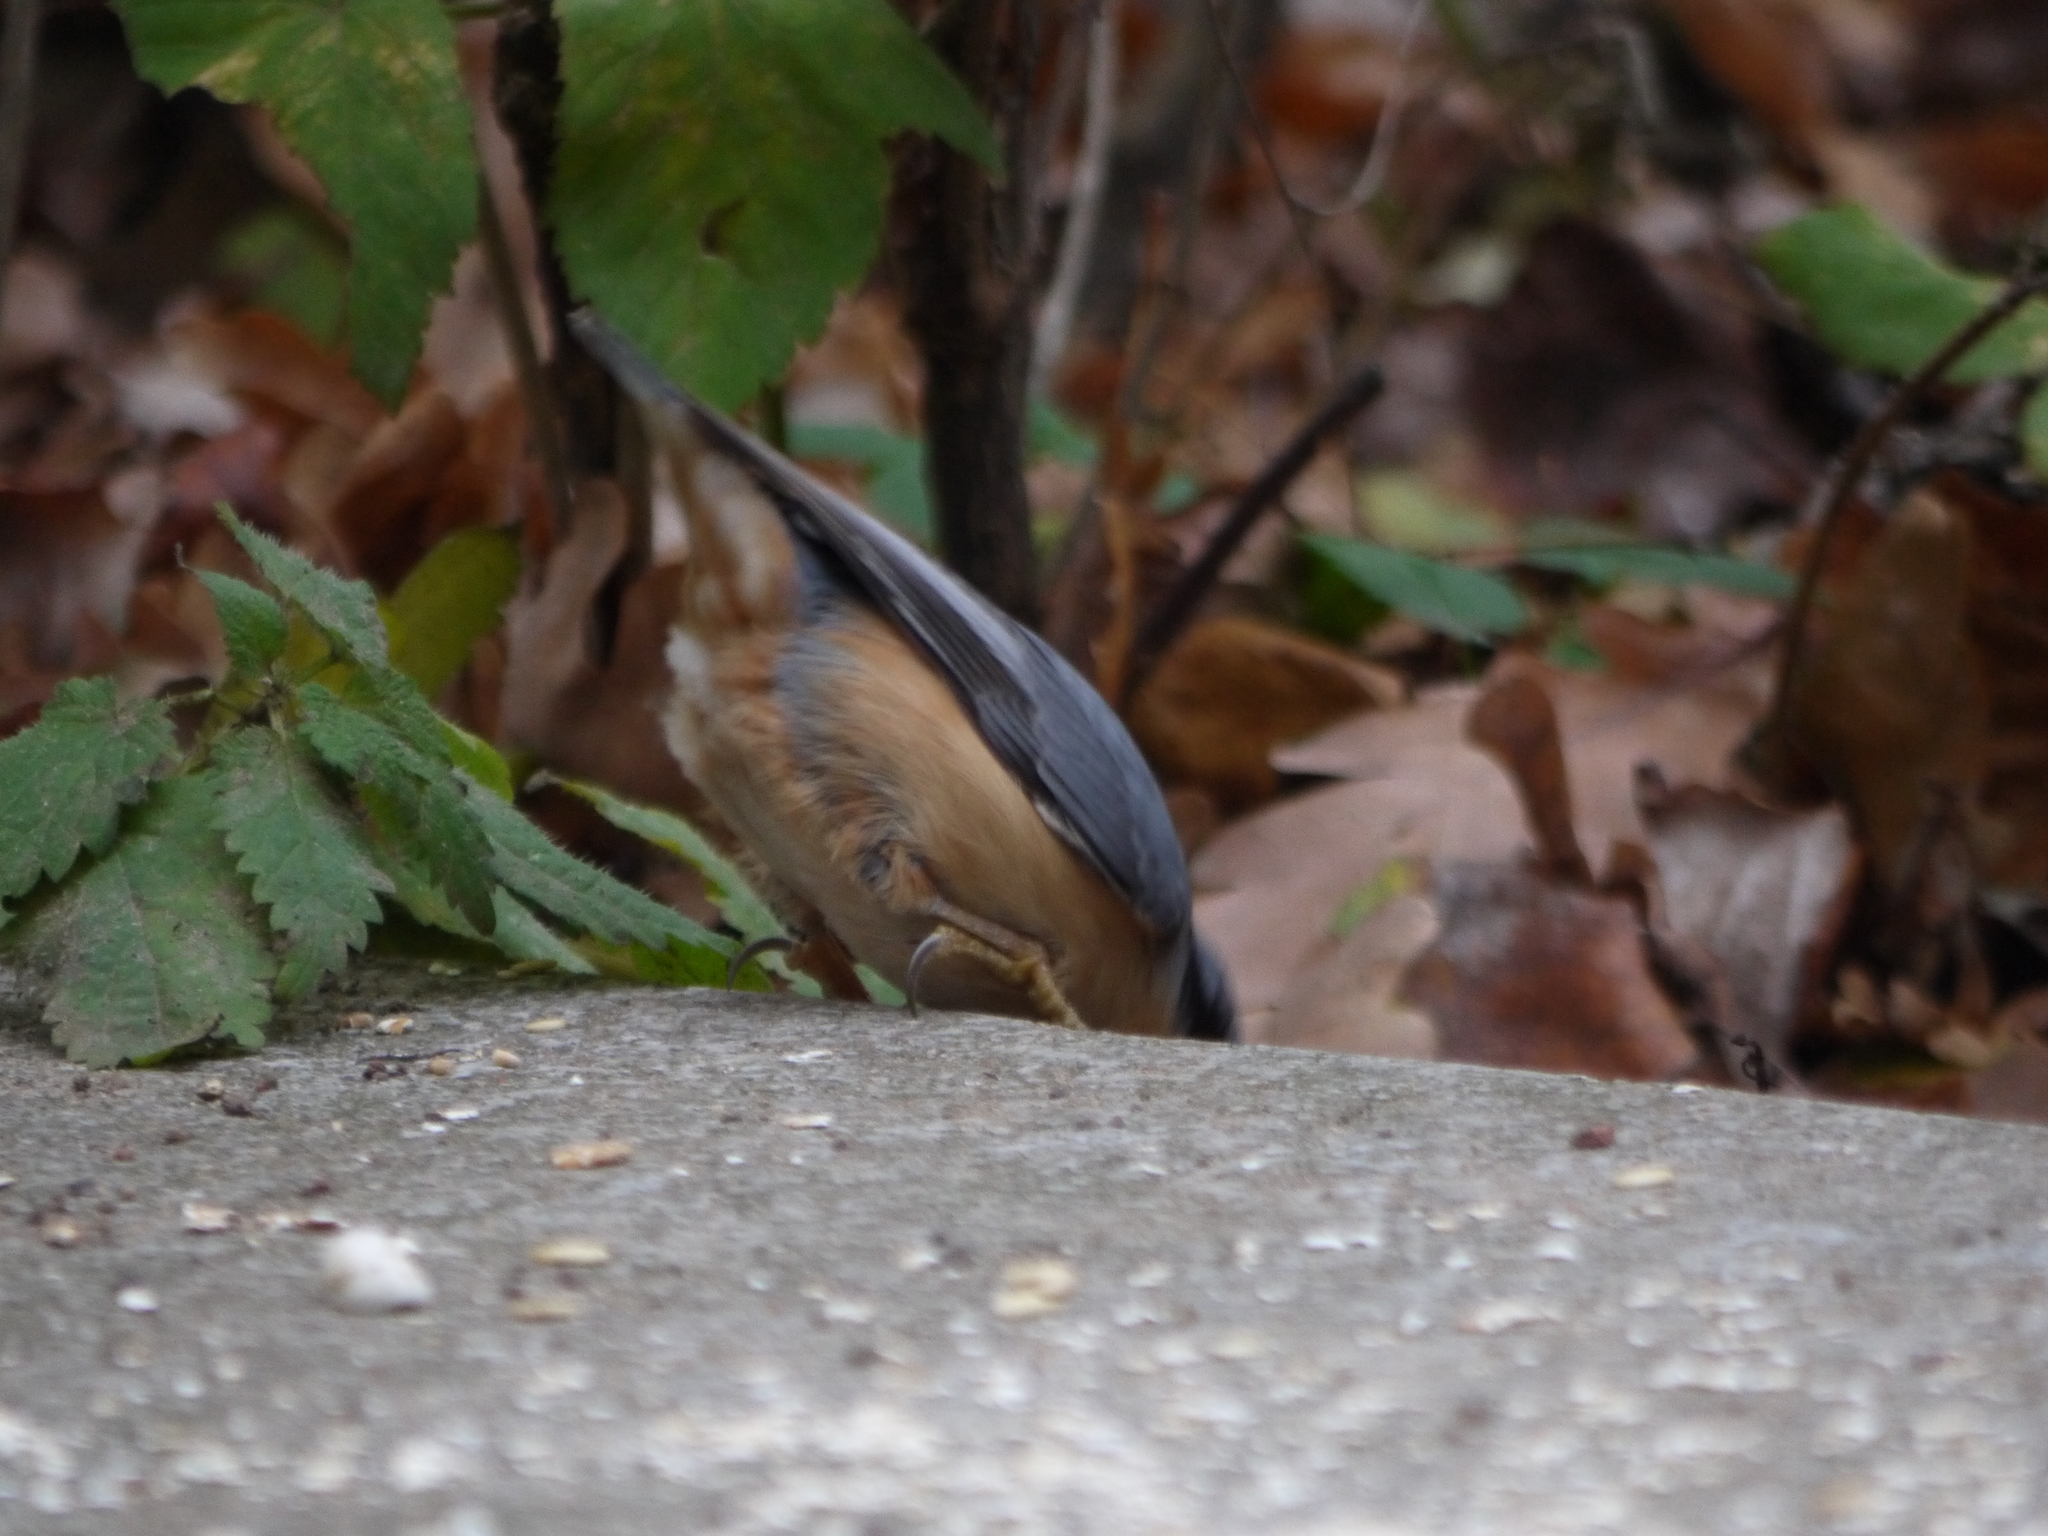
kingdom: Animalia
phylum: Chordata
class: Aves
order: Passeriformes
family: Sittidae
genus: Sitta
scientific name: Sitta europaea
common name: Eurasian nuthatch
